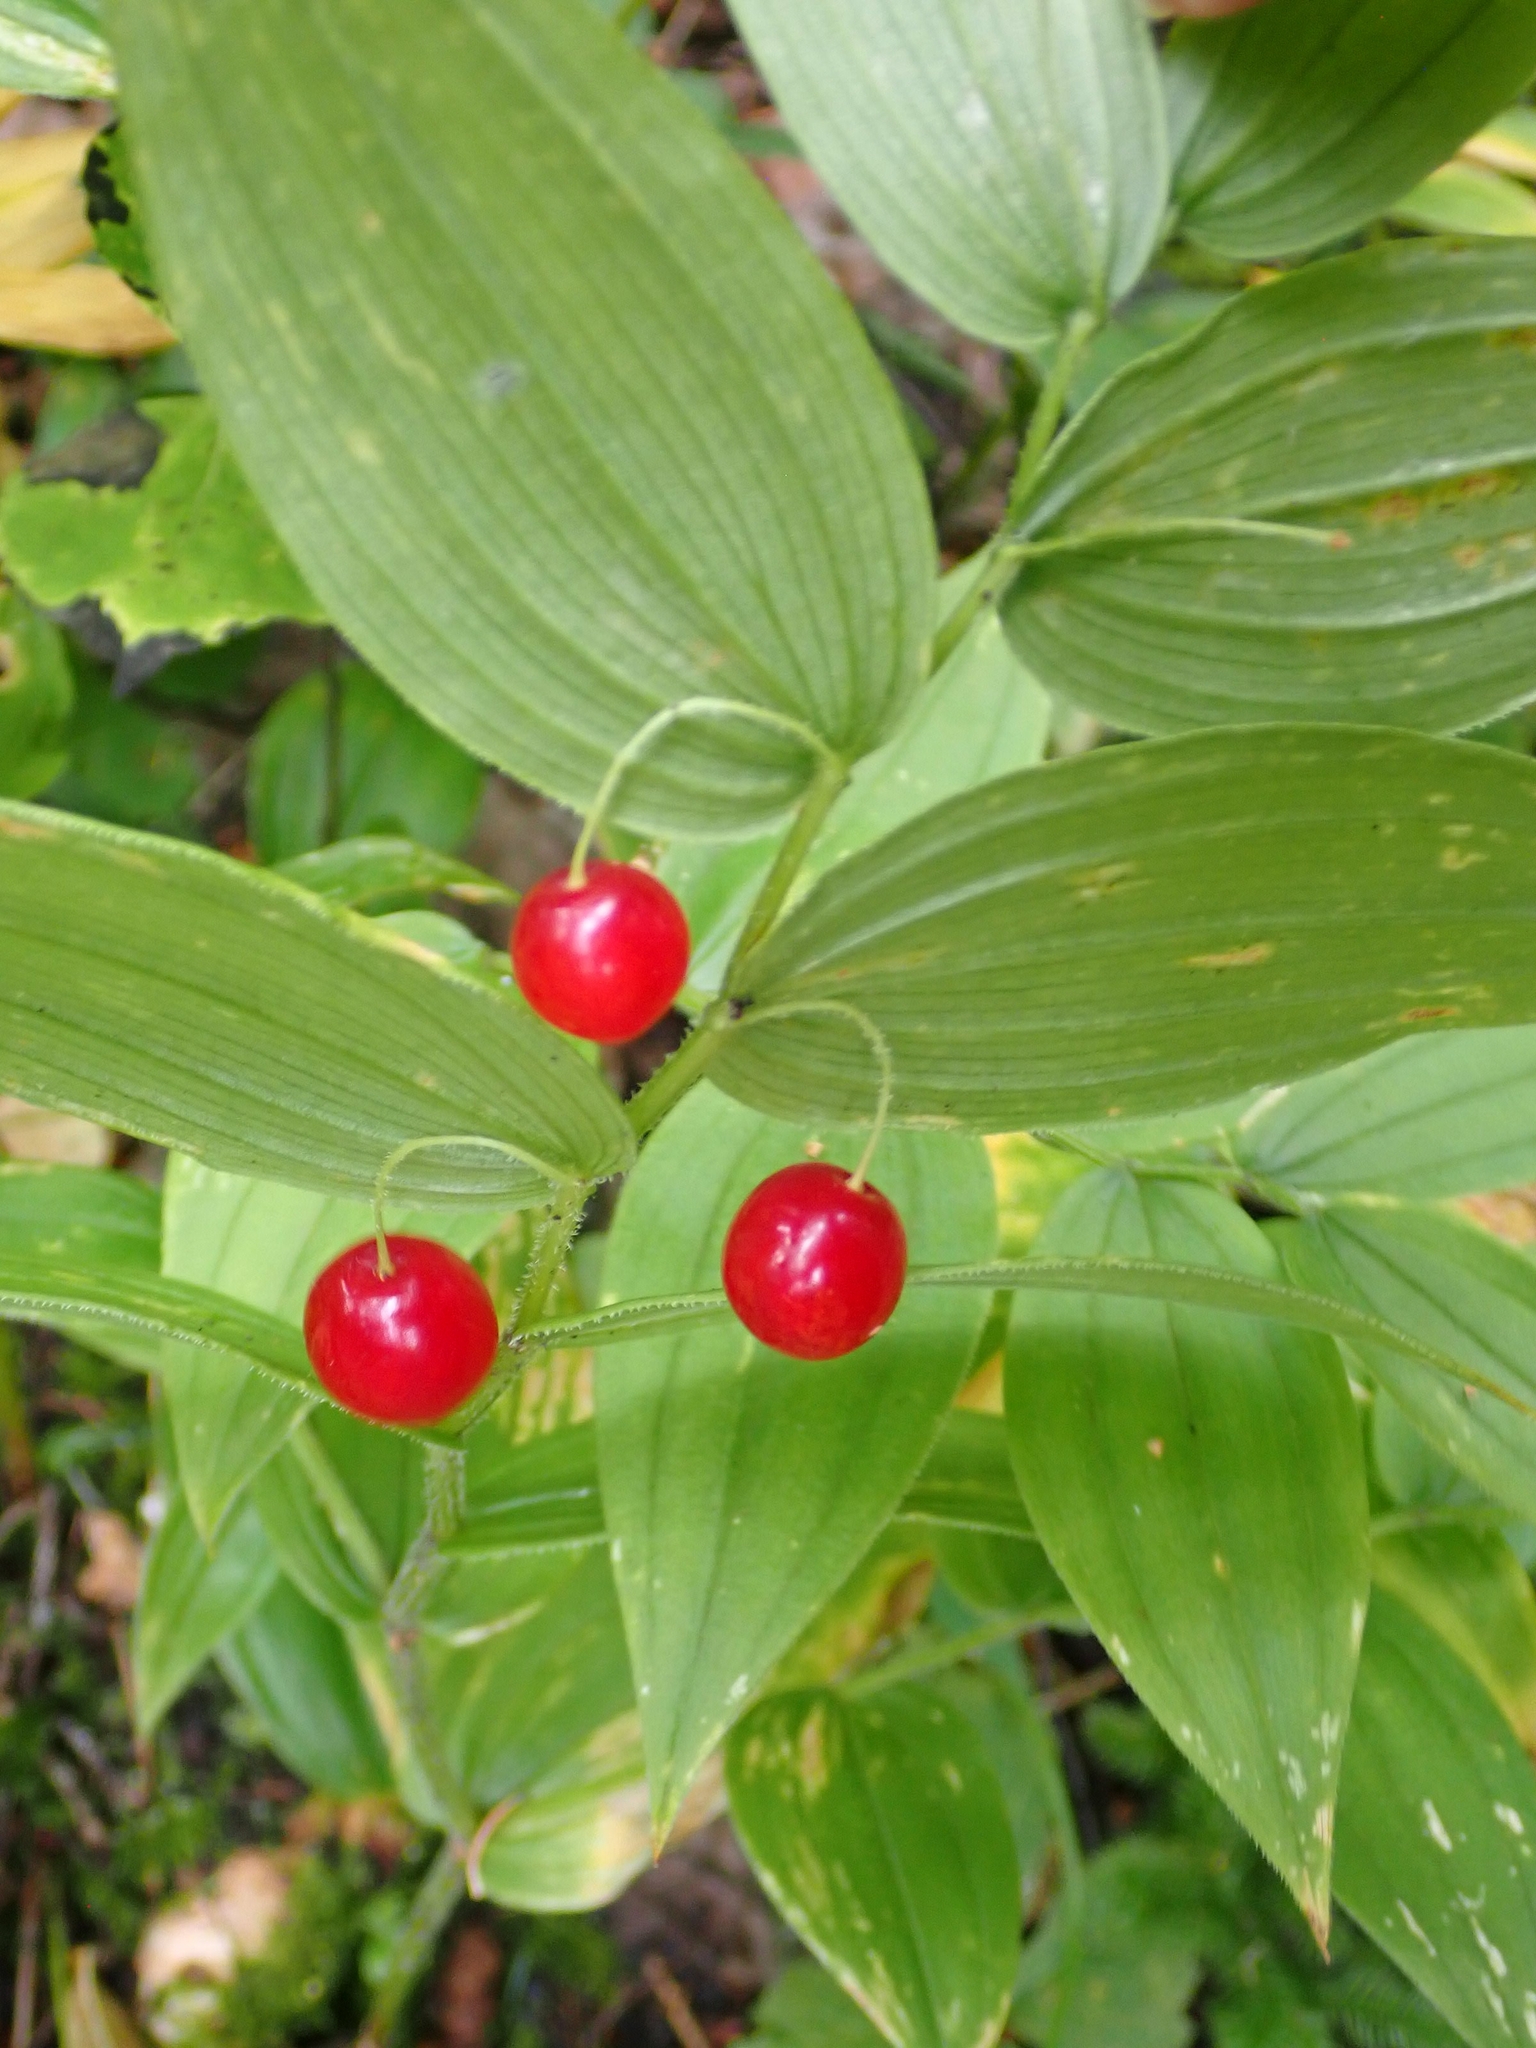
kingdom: Plantae
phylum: Tracheophyta
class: Liliopsida
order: Liliales
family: Liliaceae
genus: Streptopus
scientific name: Streptopus lanceolatus
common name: Rose mandarin
